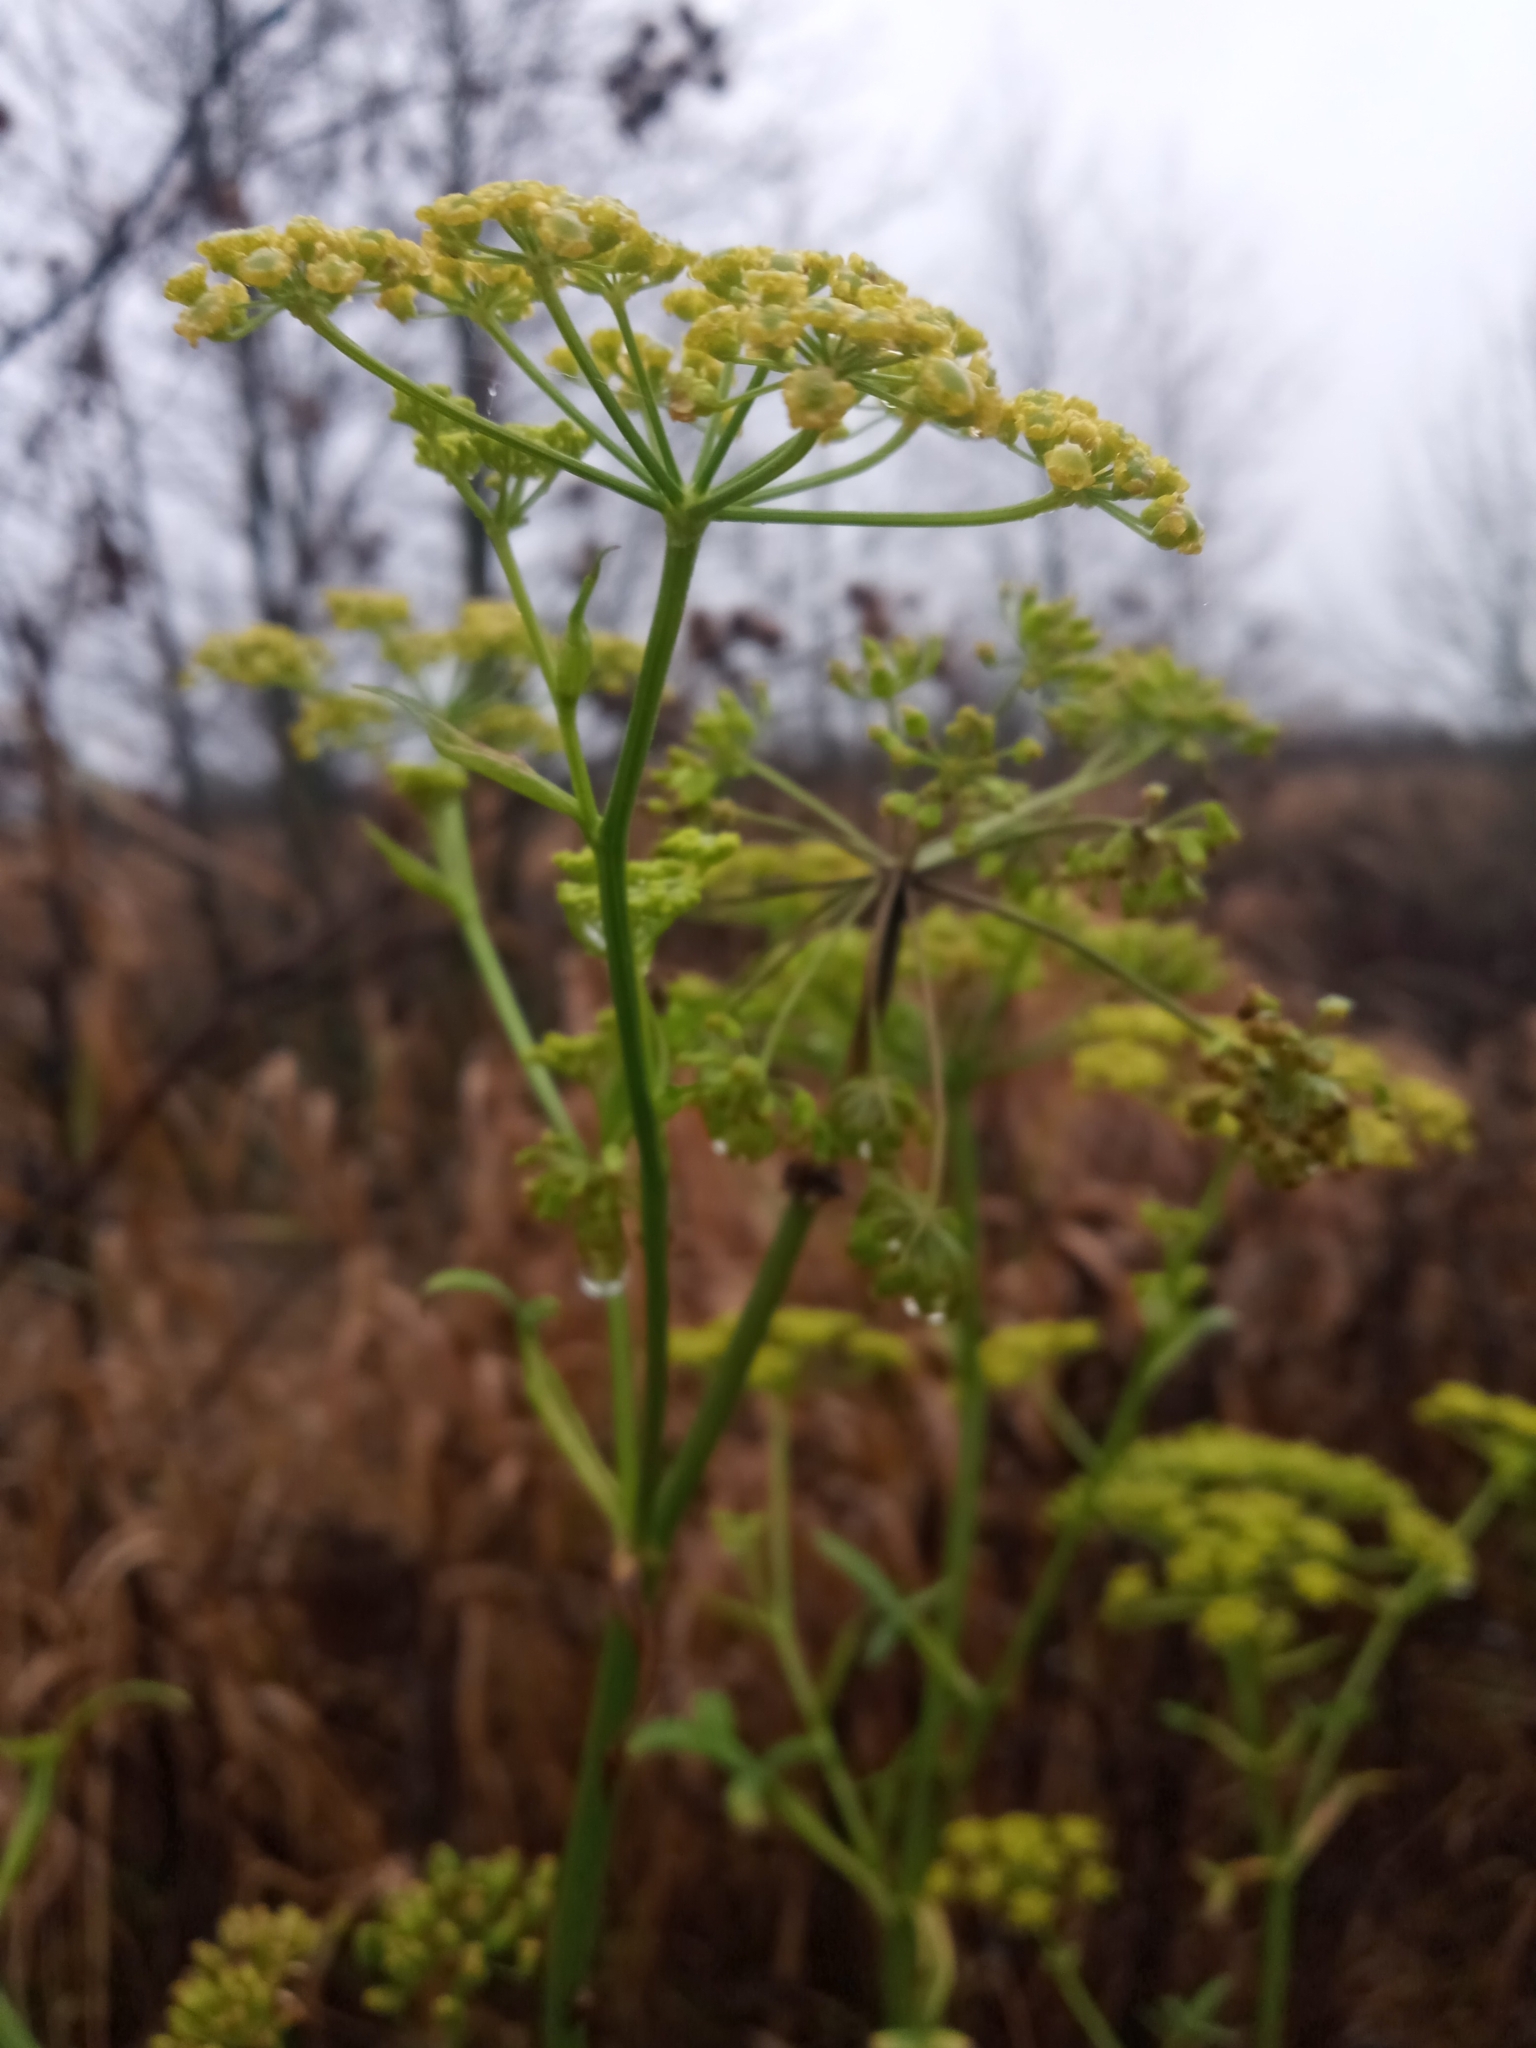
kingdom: Plantae
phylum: Tracheophyta
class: Magnoliopsida
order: Apiales
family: Apiaceae
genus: Pastinaca
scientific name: Pastinaca sativa
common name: Wild parsnip
